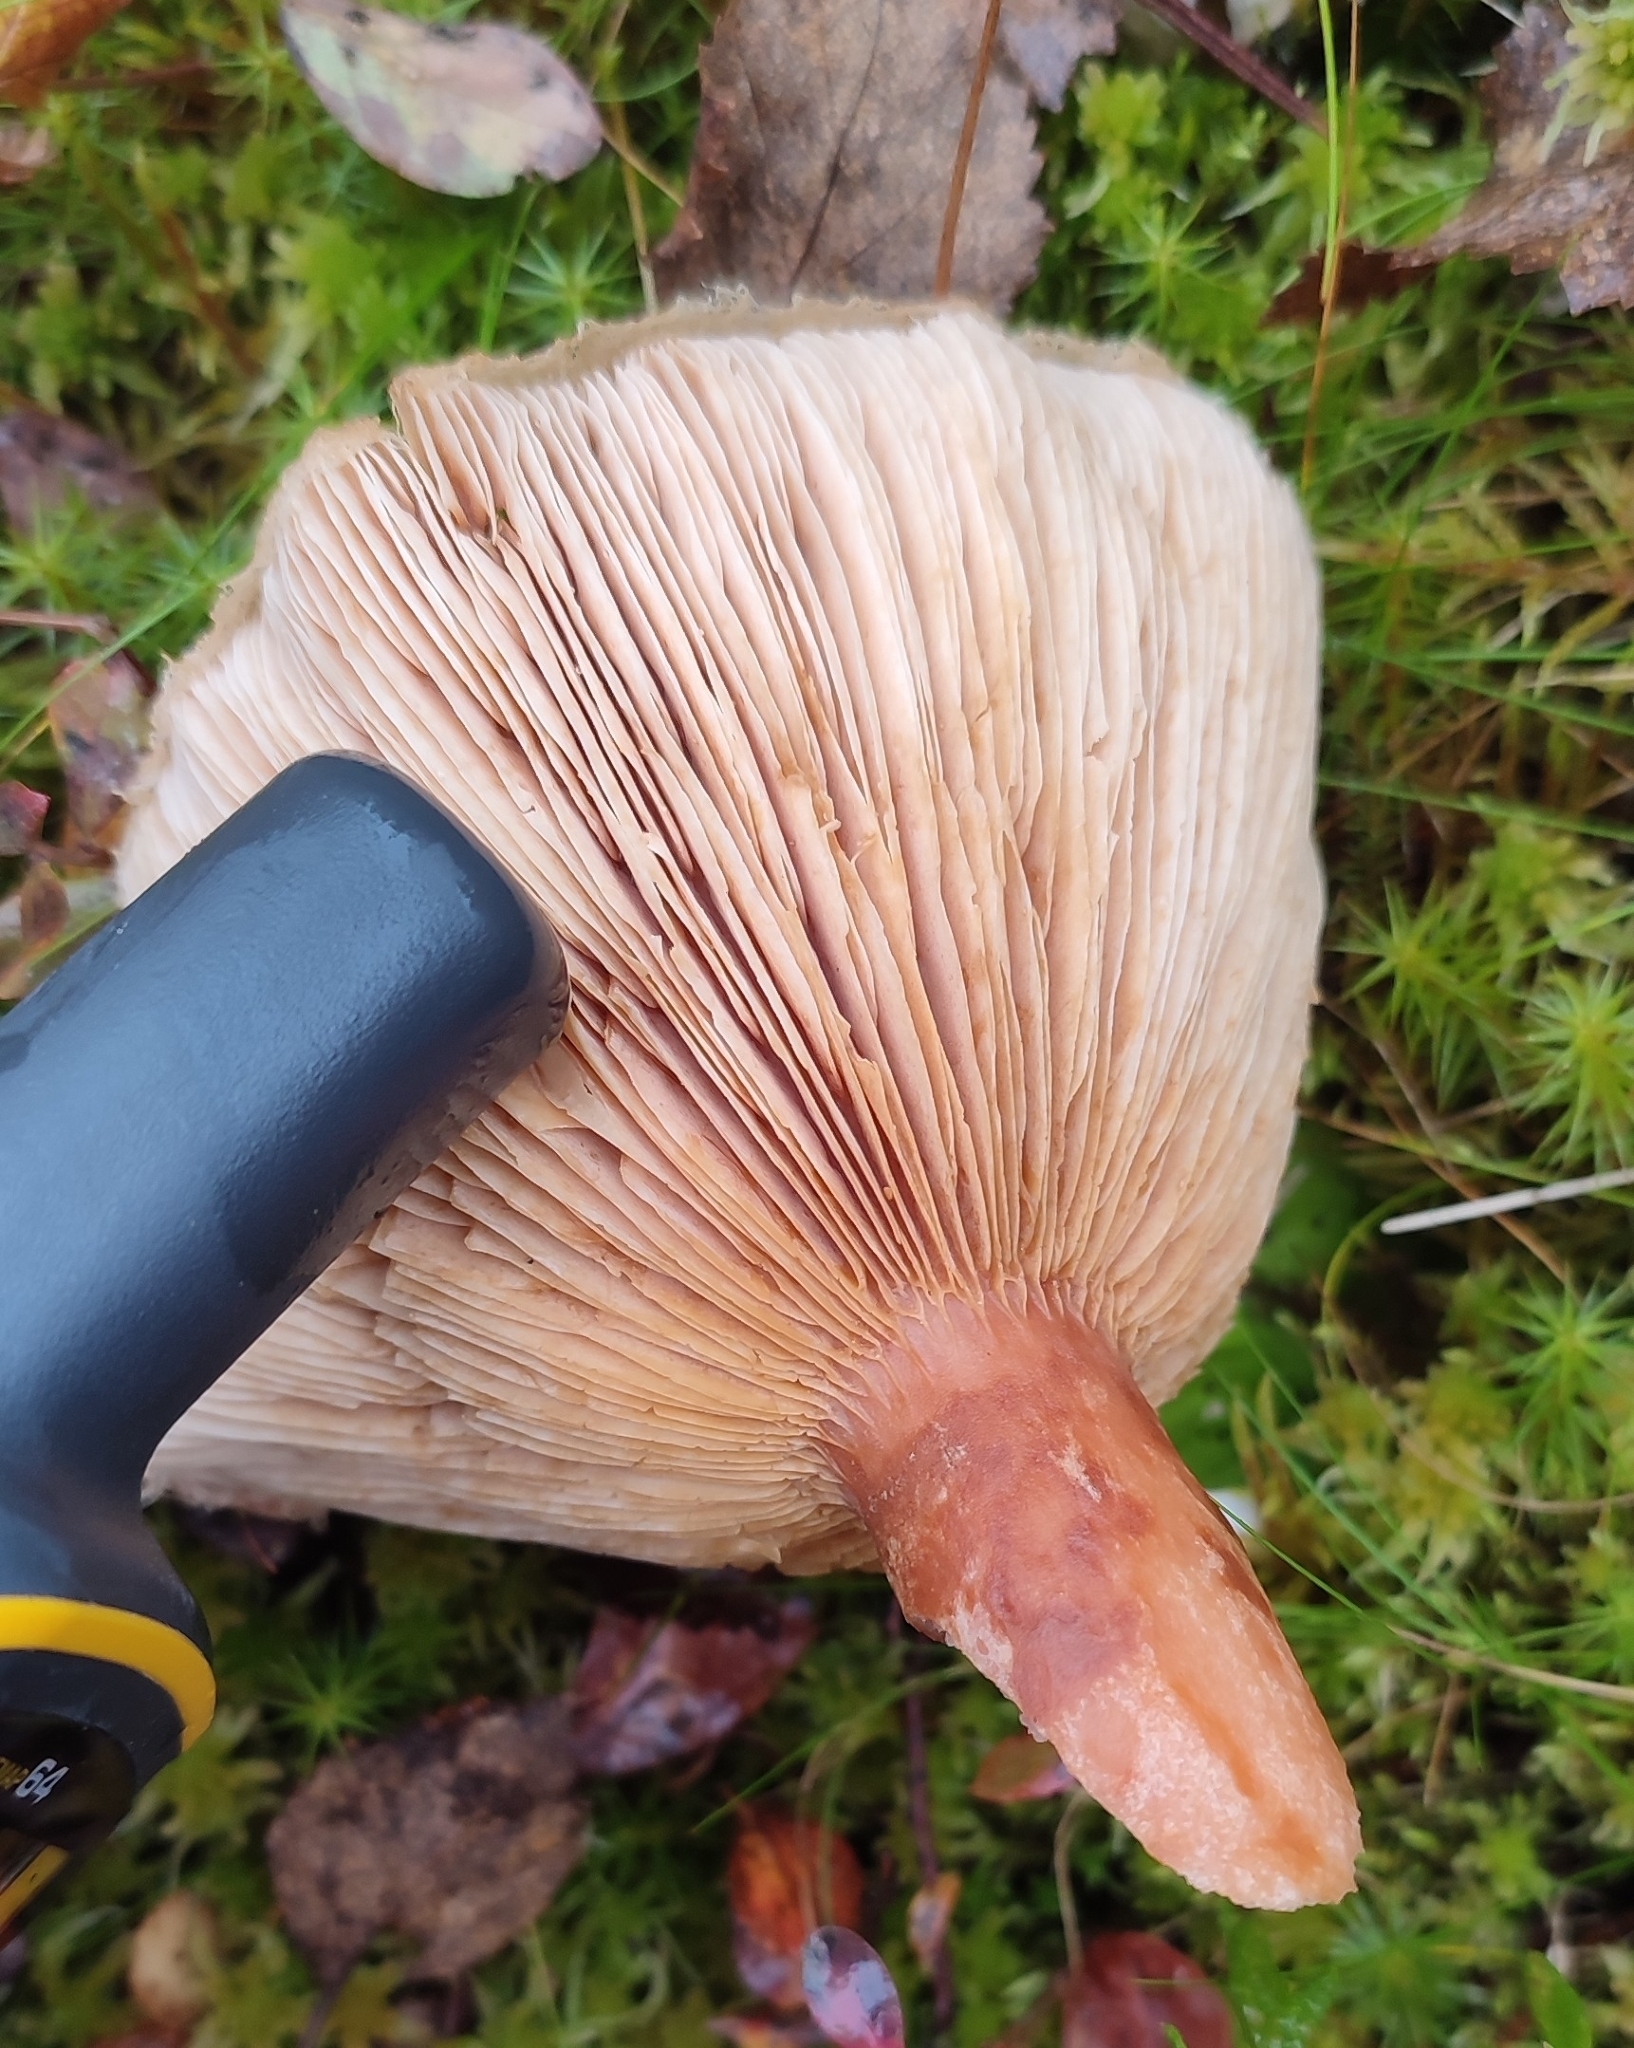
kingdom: Fungi
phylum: Basidiomycota
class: Agaricomycetes
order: Russulales
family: Russulaceae
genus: Lactarius
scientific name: Lactarius torminosus
